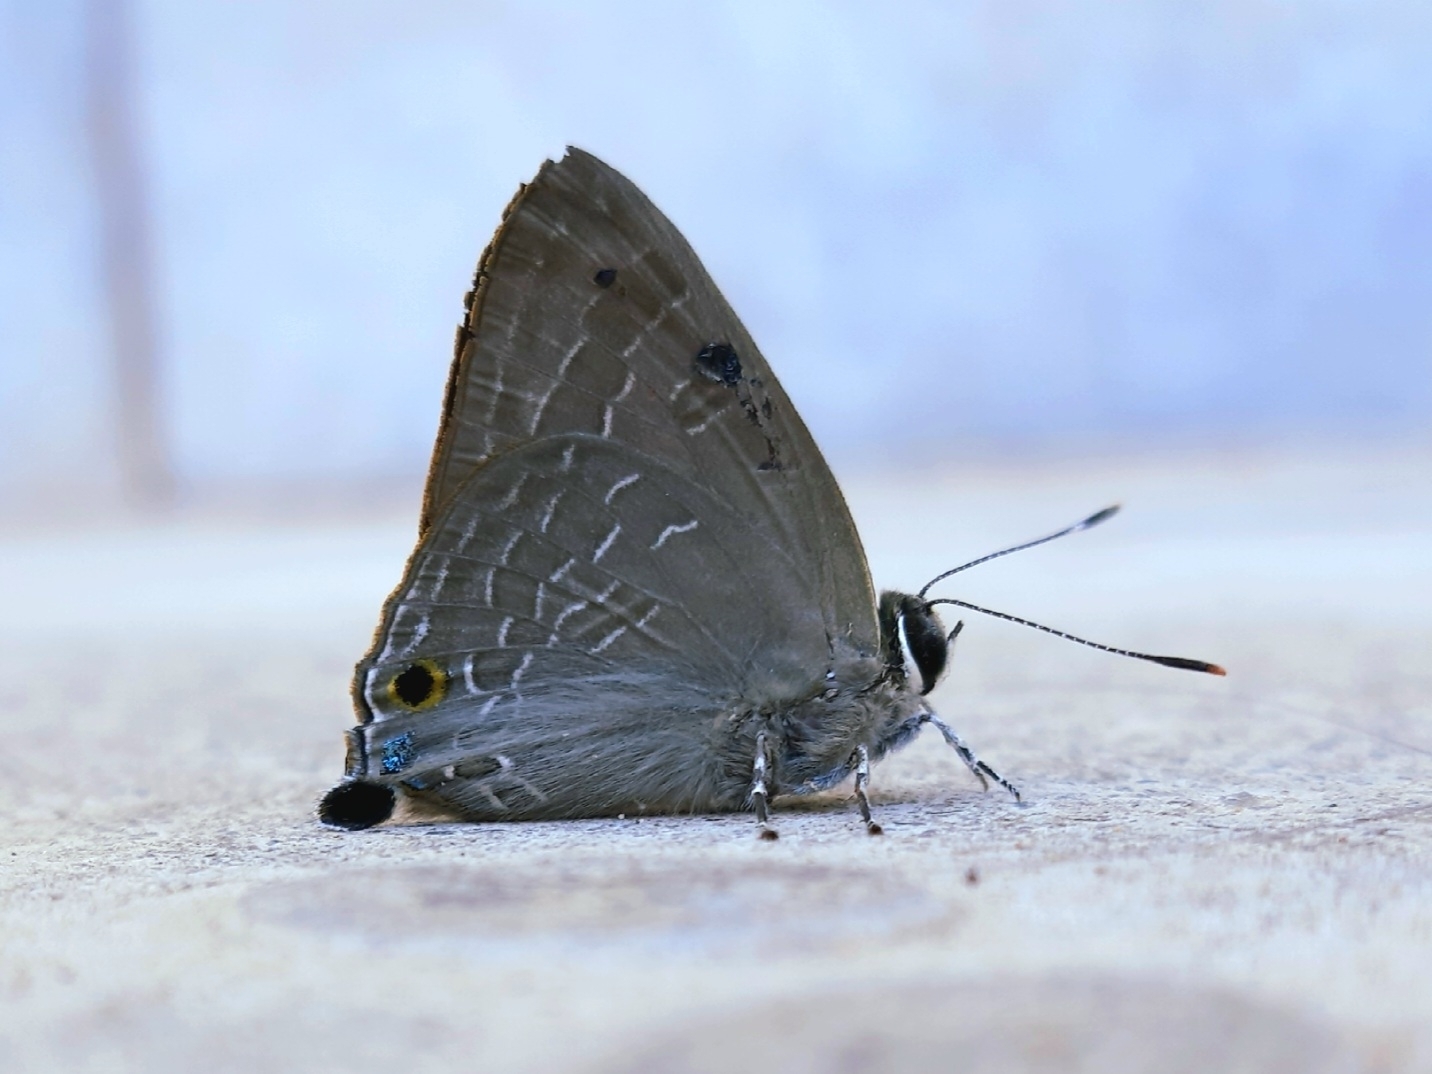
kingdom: Animalia
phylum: Arthropoda
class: Insecta
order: Lepidoptera
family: Lycaenidae
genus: Deudorix
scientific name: Deudorix epijarbas
